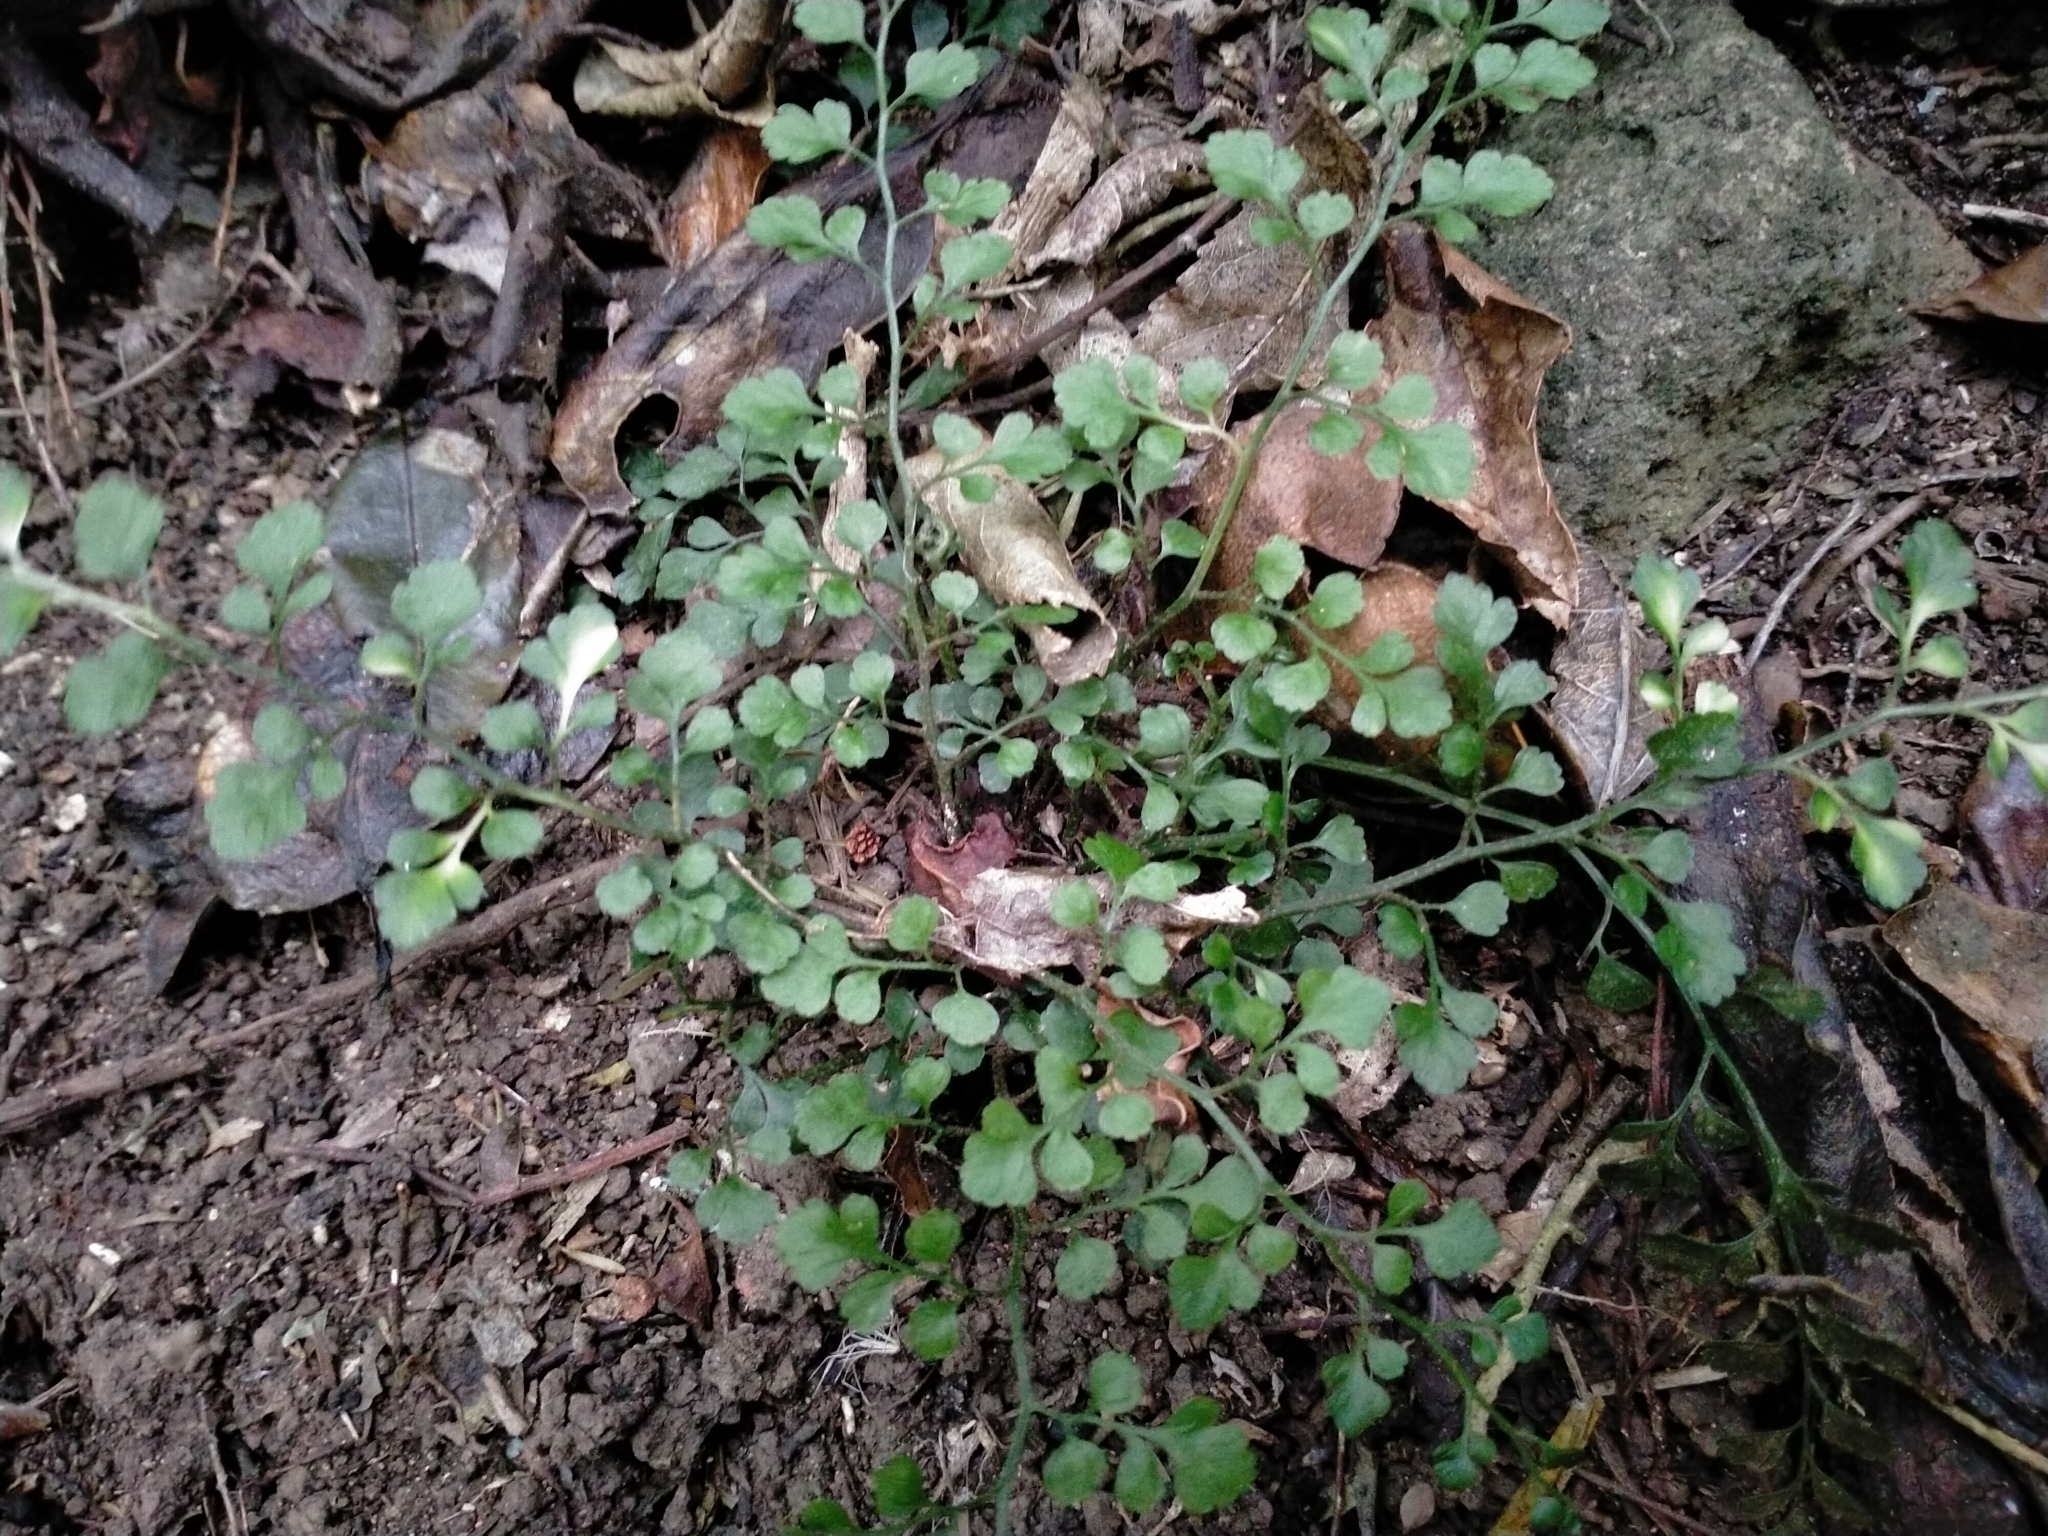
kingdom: Plantae
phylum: Tracheophyta
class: Polypodiopsida
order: Polypodiales
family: Aspleniaceae
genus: Asplenium
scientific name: Asplenium hookerianum
